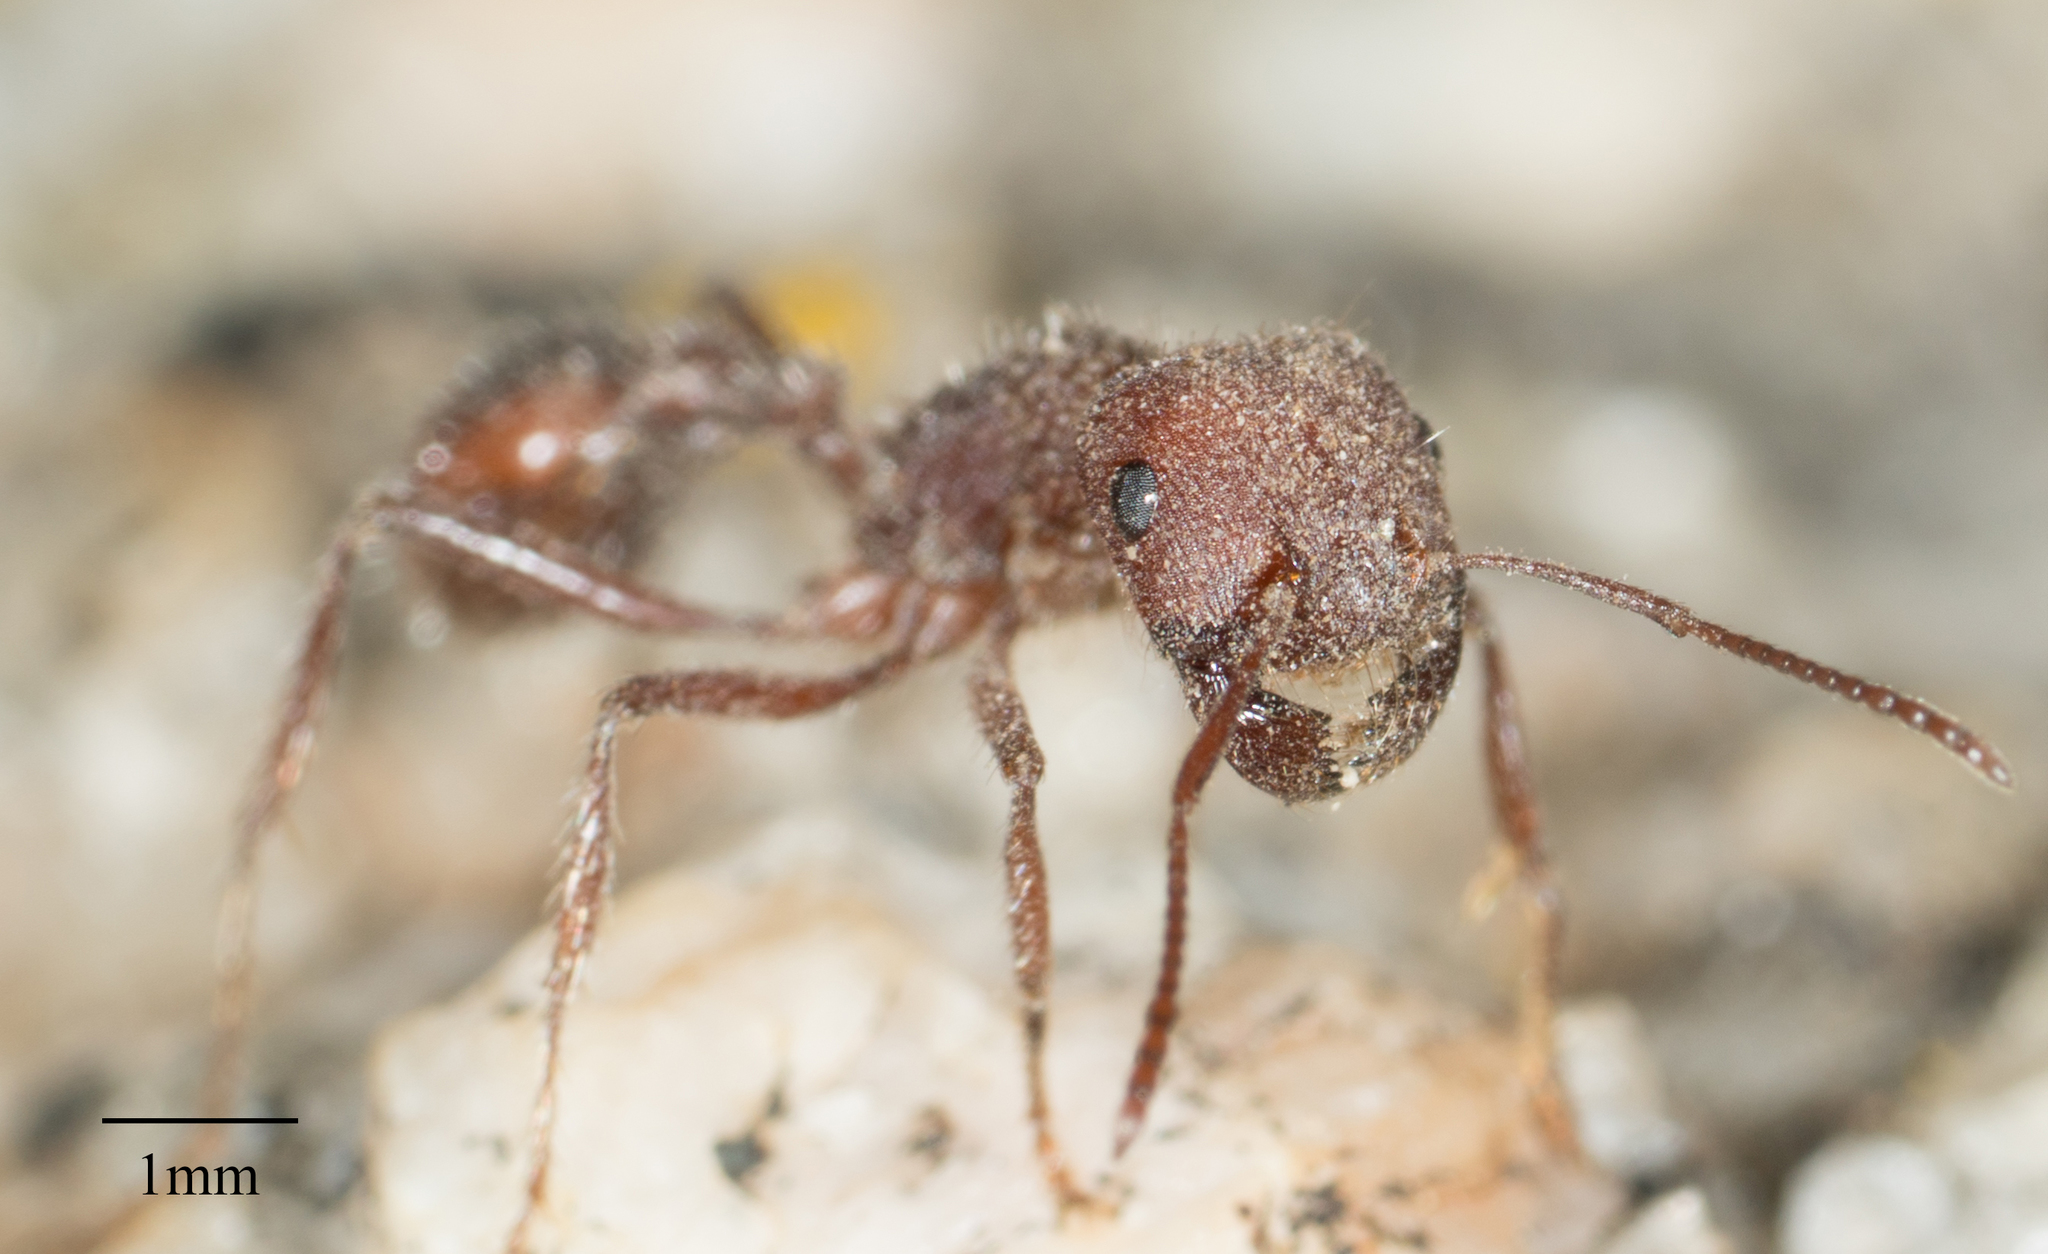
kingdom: Animalia
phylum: Arthropoda
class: Insecta
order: Hymenoptera
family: Formicidae
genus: Pogonomyrmex
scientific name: Pogonomyrmex montanus
